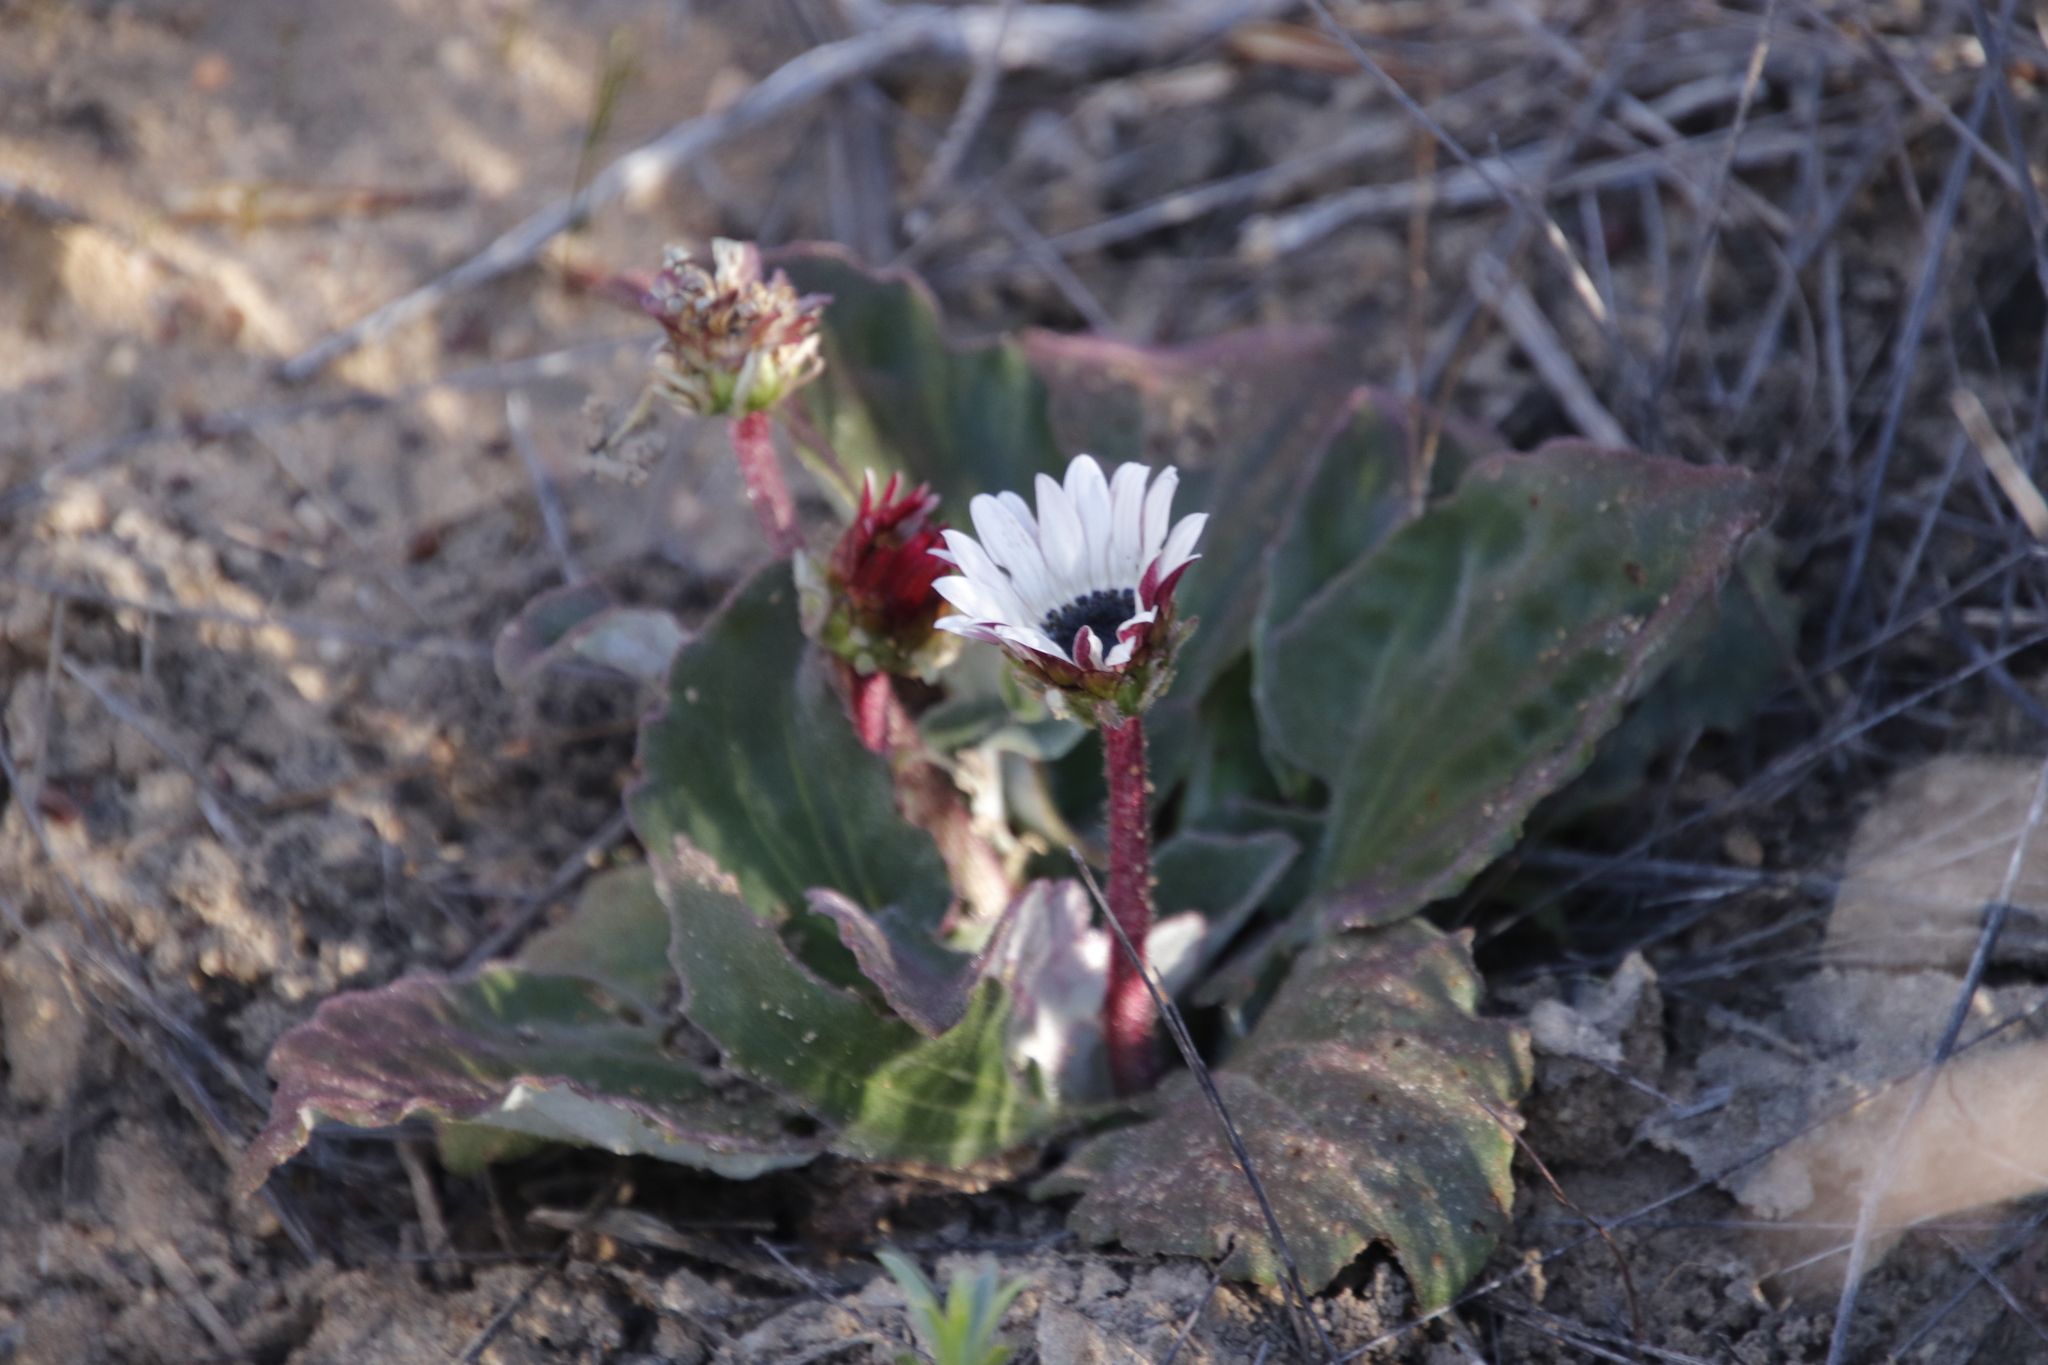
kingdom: Plantae
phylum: Tracheophyta
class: Magnoliopsida
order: Asterales
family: Asteraceae
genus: Arctotis
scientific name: Arctotis acaulis
